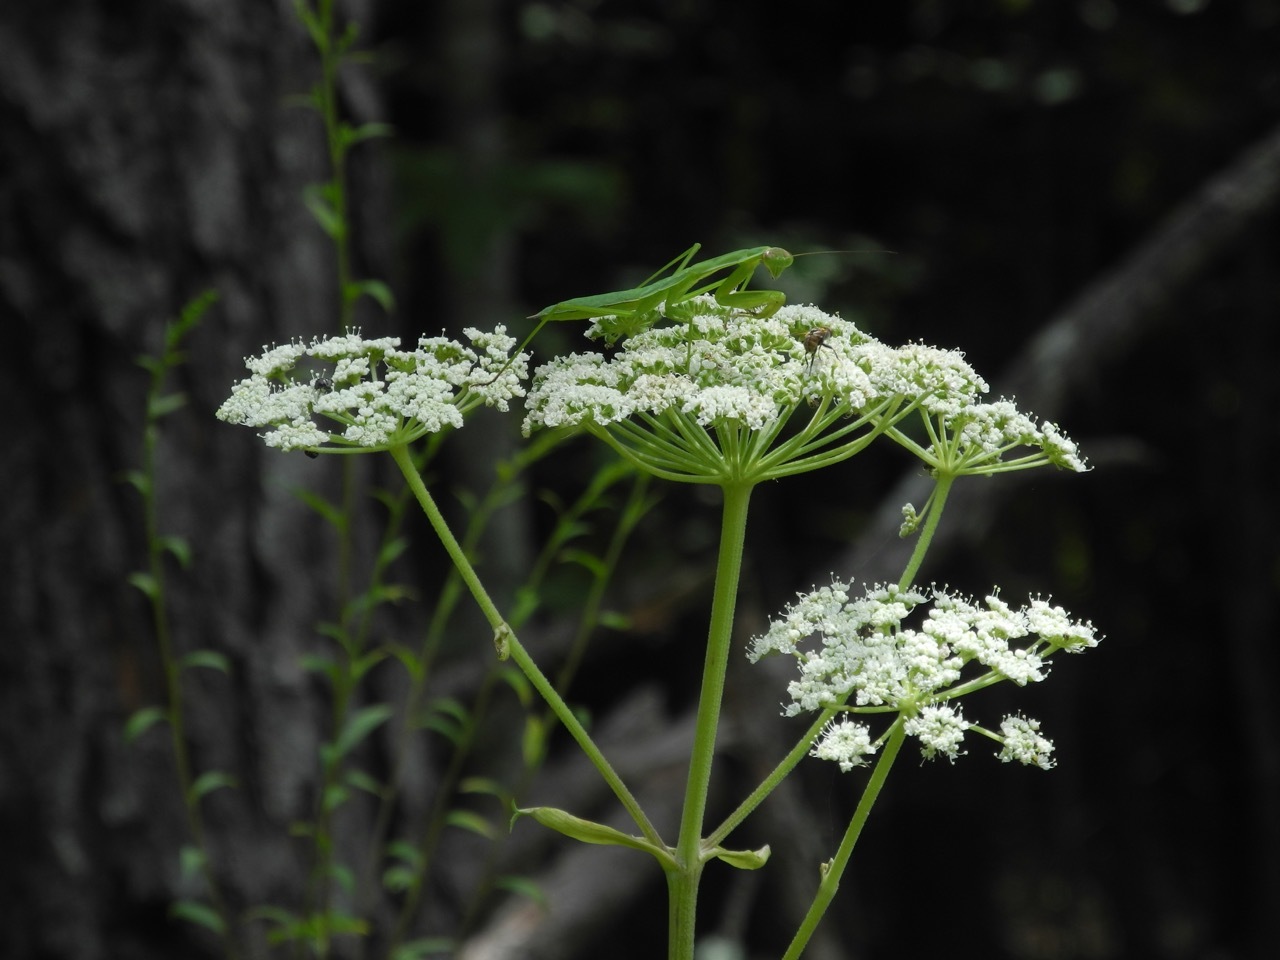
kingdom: Plantae
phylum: Tracheophyta
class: Magnoliopsida
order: Apiales
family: Apiaceae
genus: Cicuta
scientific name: Cicuta maculata
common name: Spotted cowbane
